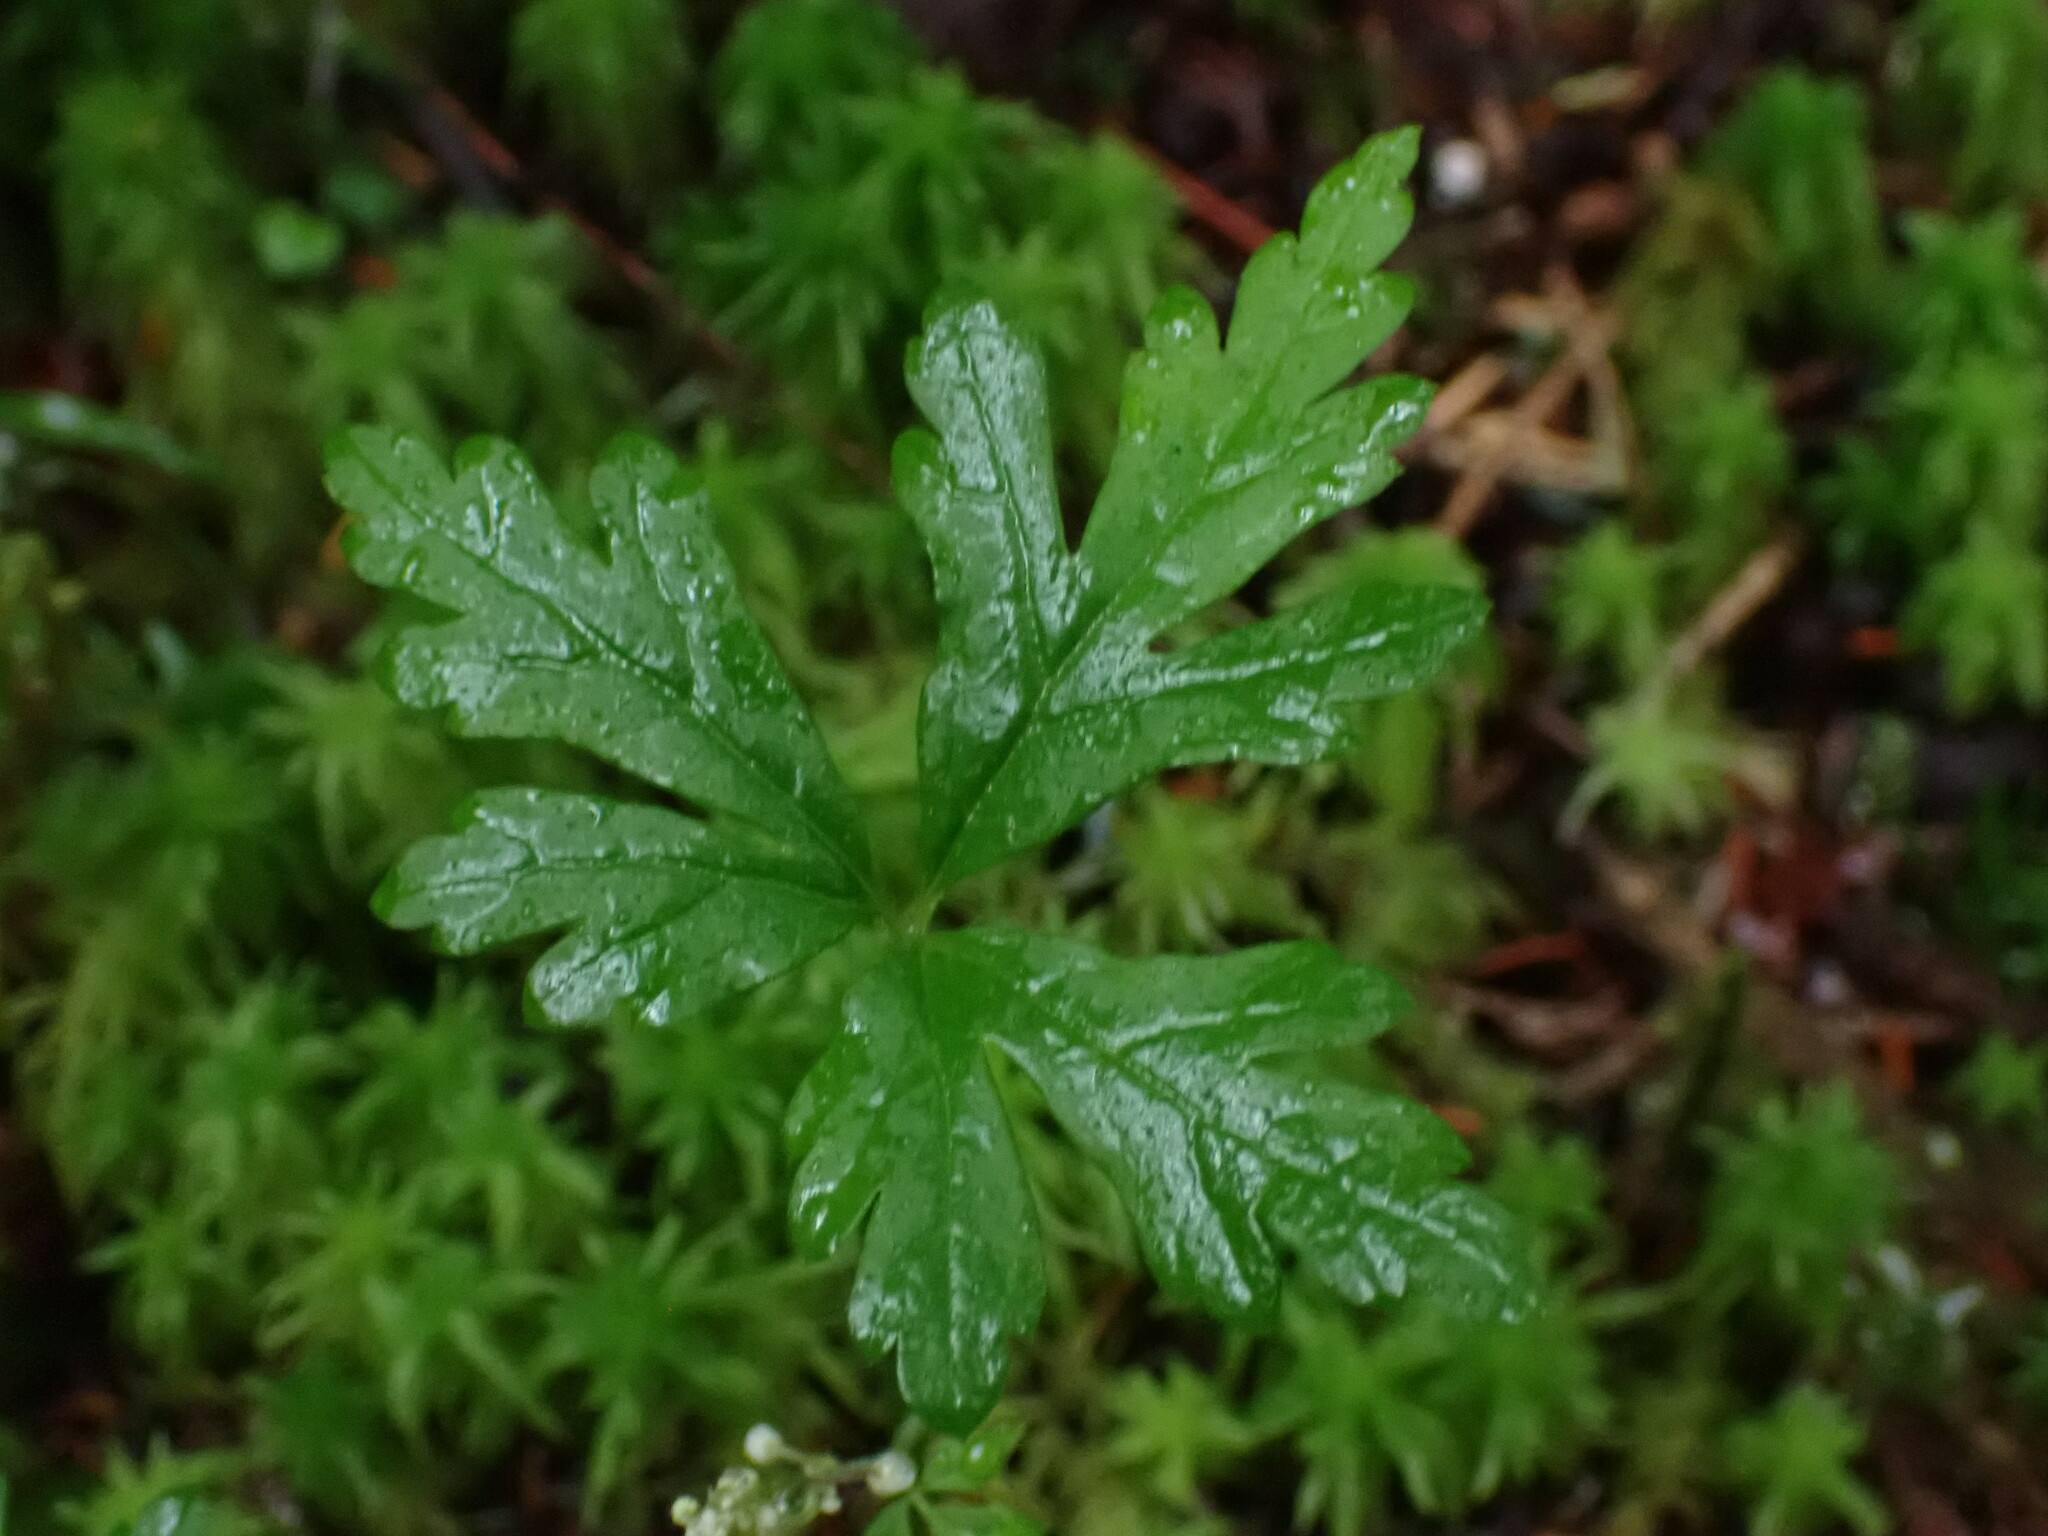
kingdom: Plantae
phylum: Tracheophyta
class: Magnoliopsida
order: Saxifragales
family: Saxifragaceae
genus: Tiarella
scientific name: Tiarella trifoliata
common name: Sugar-scoop
